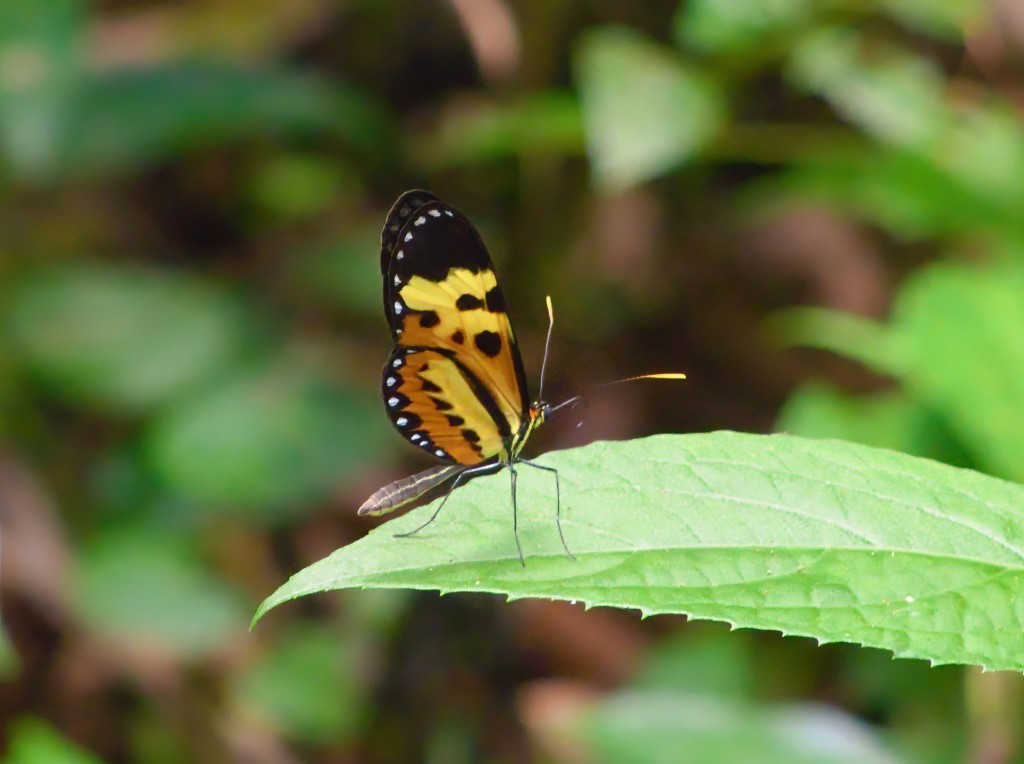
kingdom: Animalia
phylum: Arthropoda
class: Insecta
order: Lepidoptera
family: Nymphalidae
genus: Mechanitis
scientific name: Mechanitis polymnia
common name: Disturbed tigerwing
